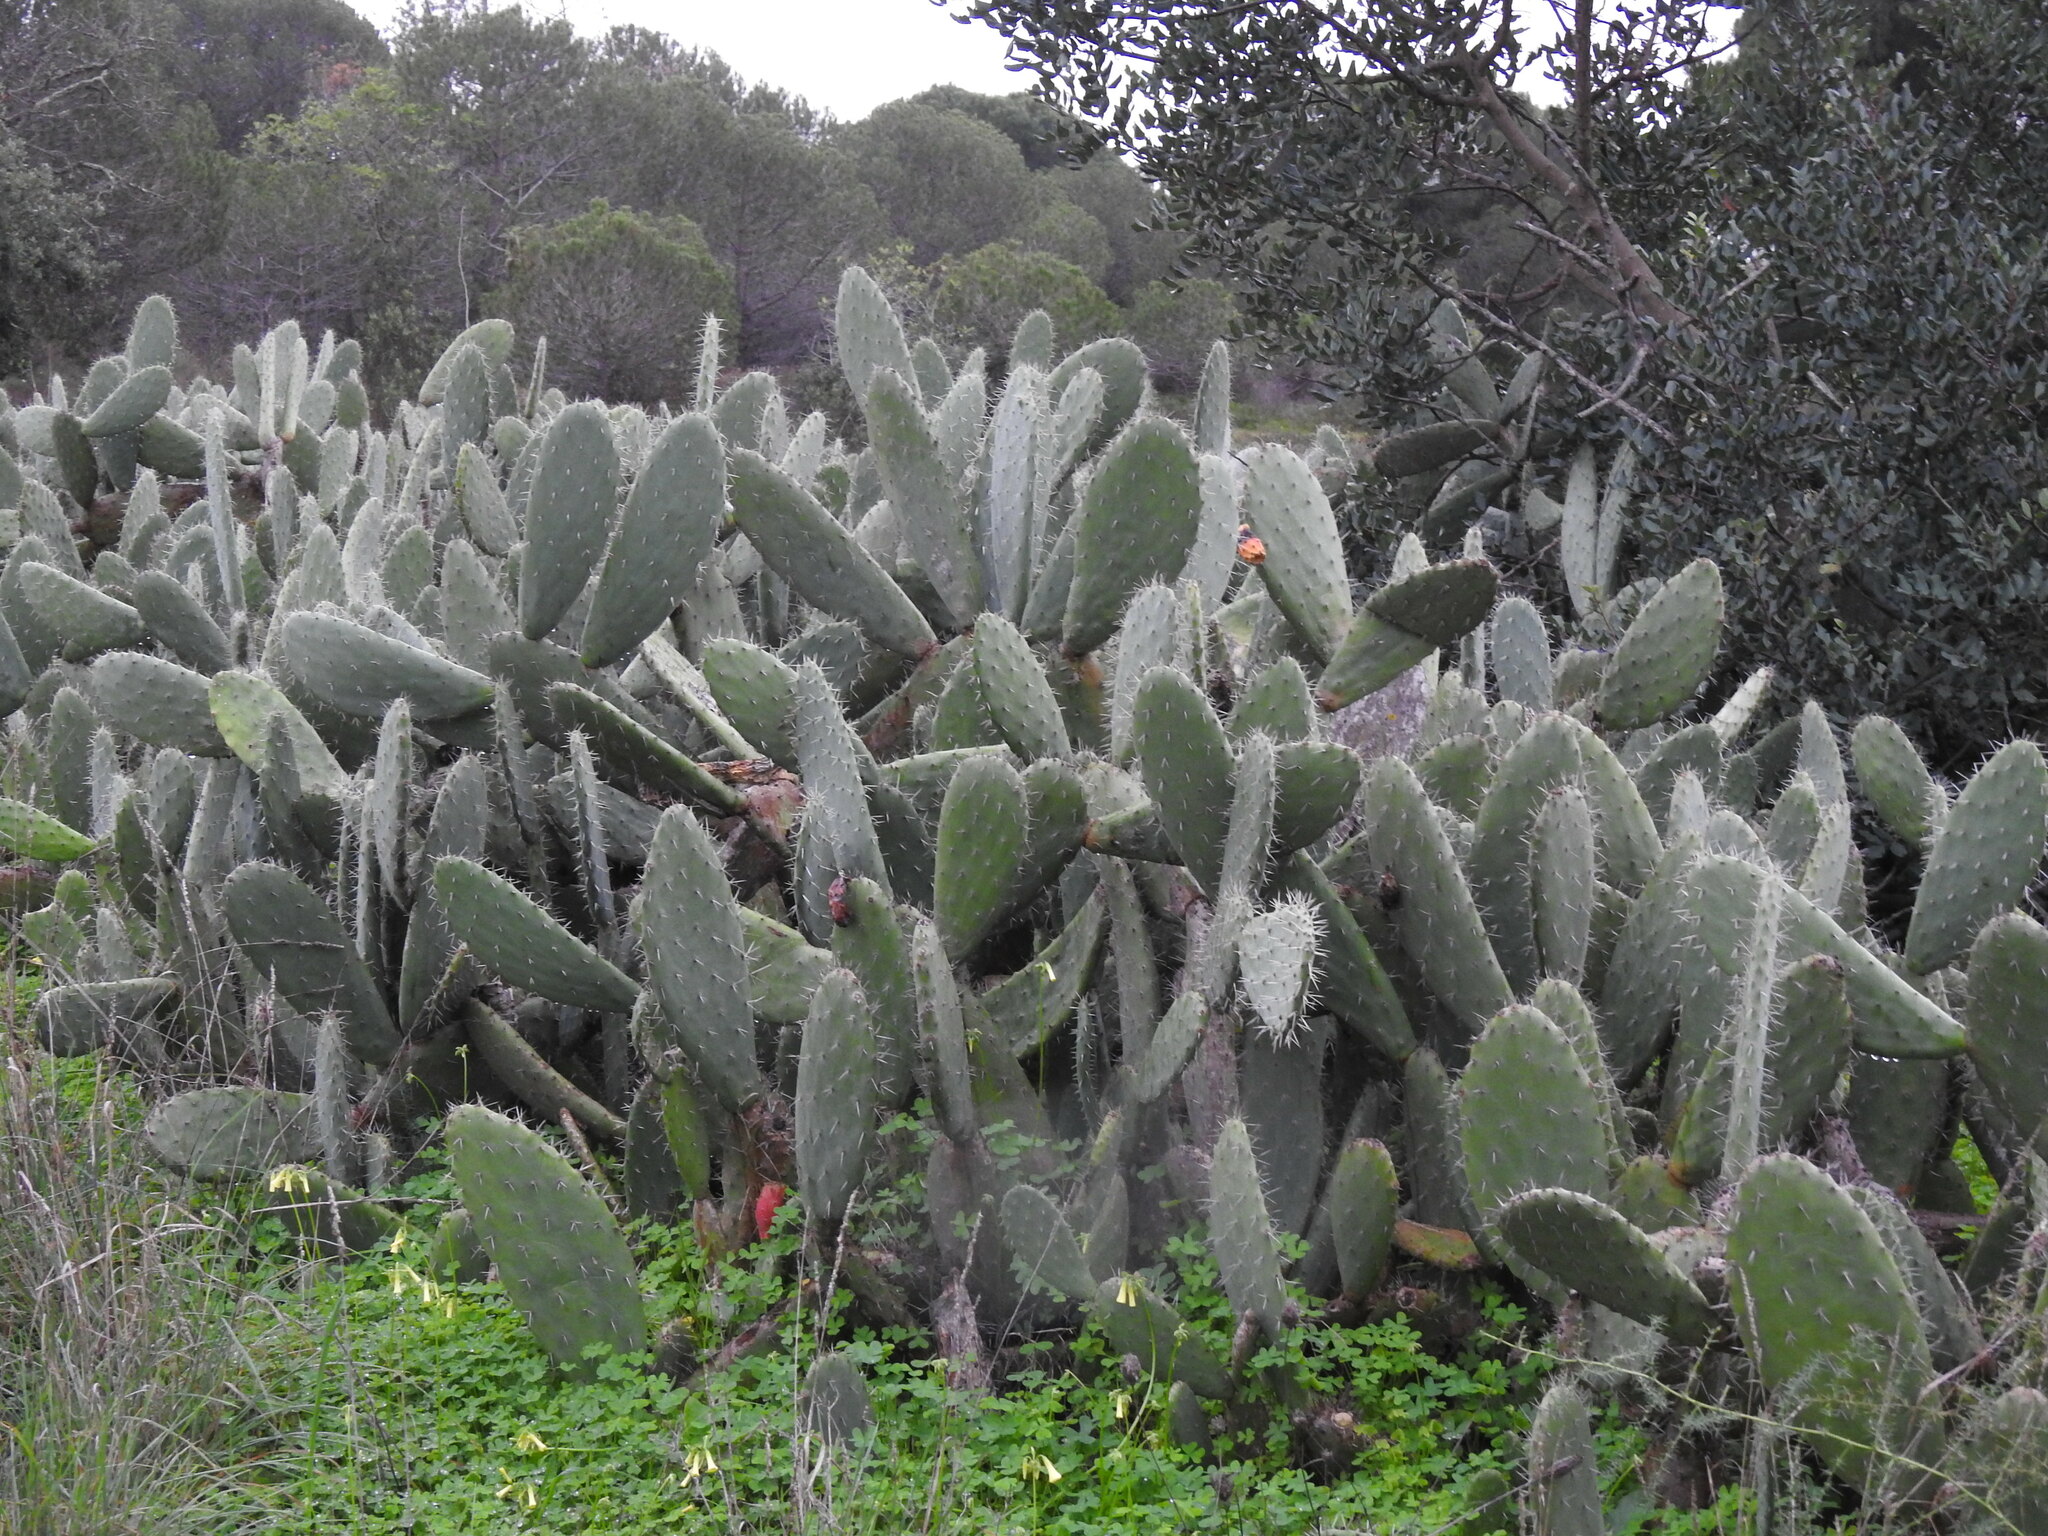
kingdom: Plantae
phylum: Tracheophyta
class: Magnoliopsida
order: Caryophyllales
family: Cactaceae
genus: Opuntia
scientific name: Opuntia ficus-indica
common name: Barbary fig
